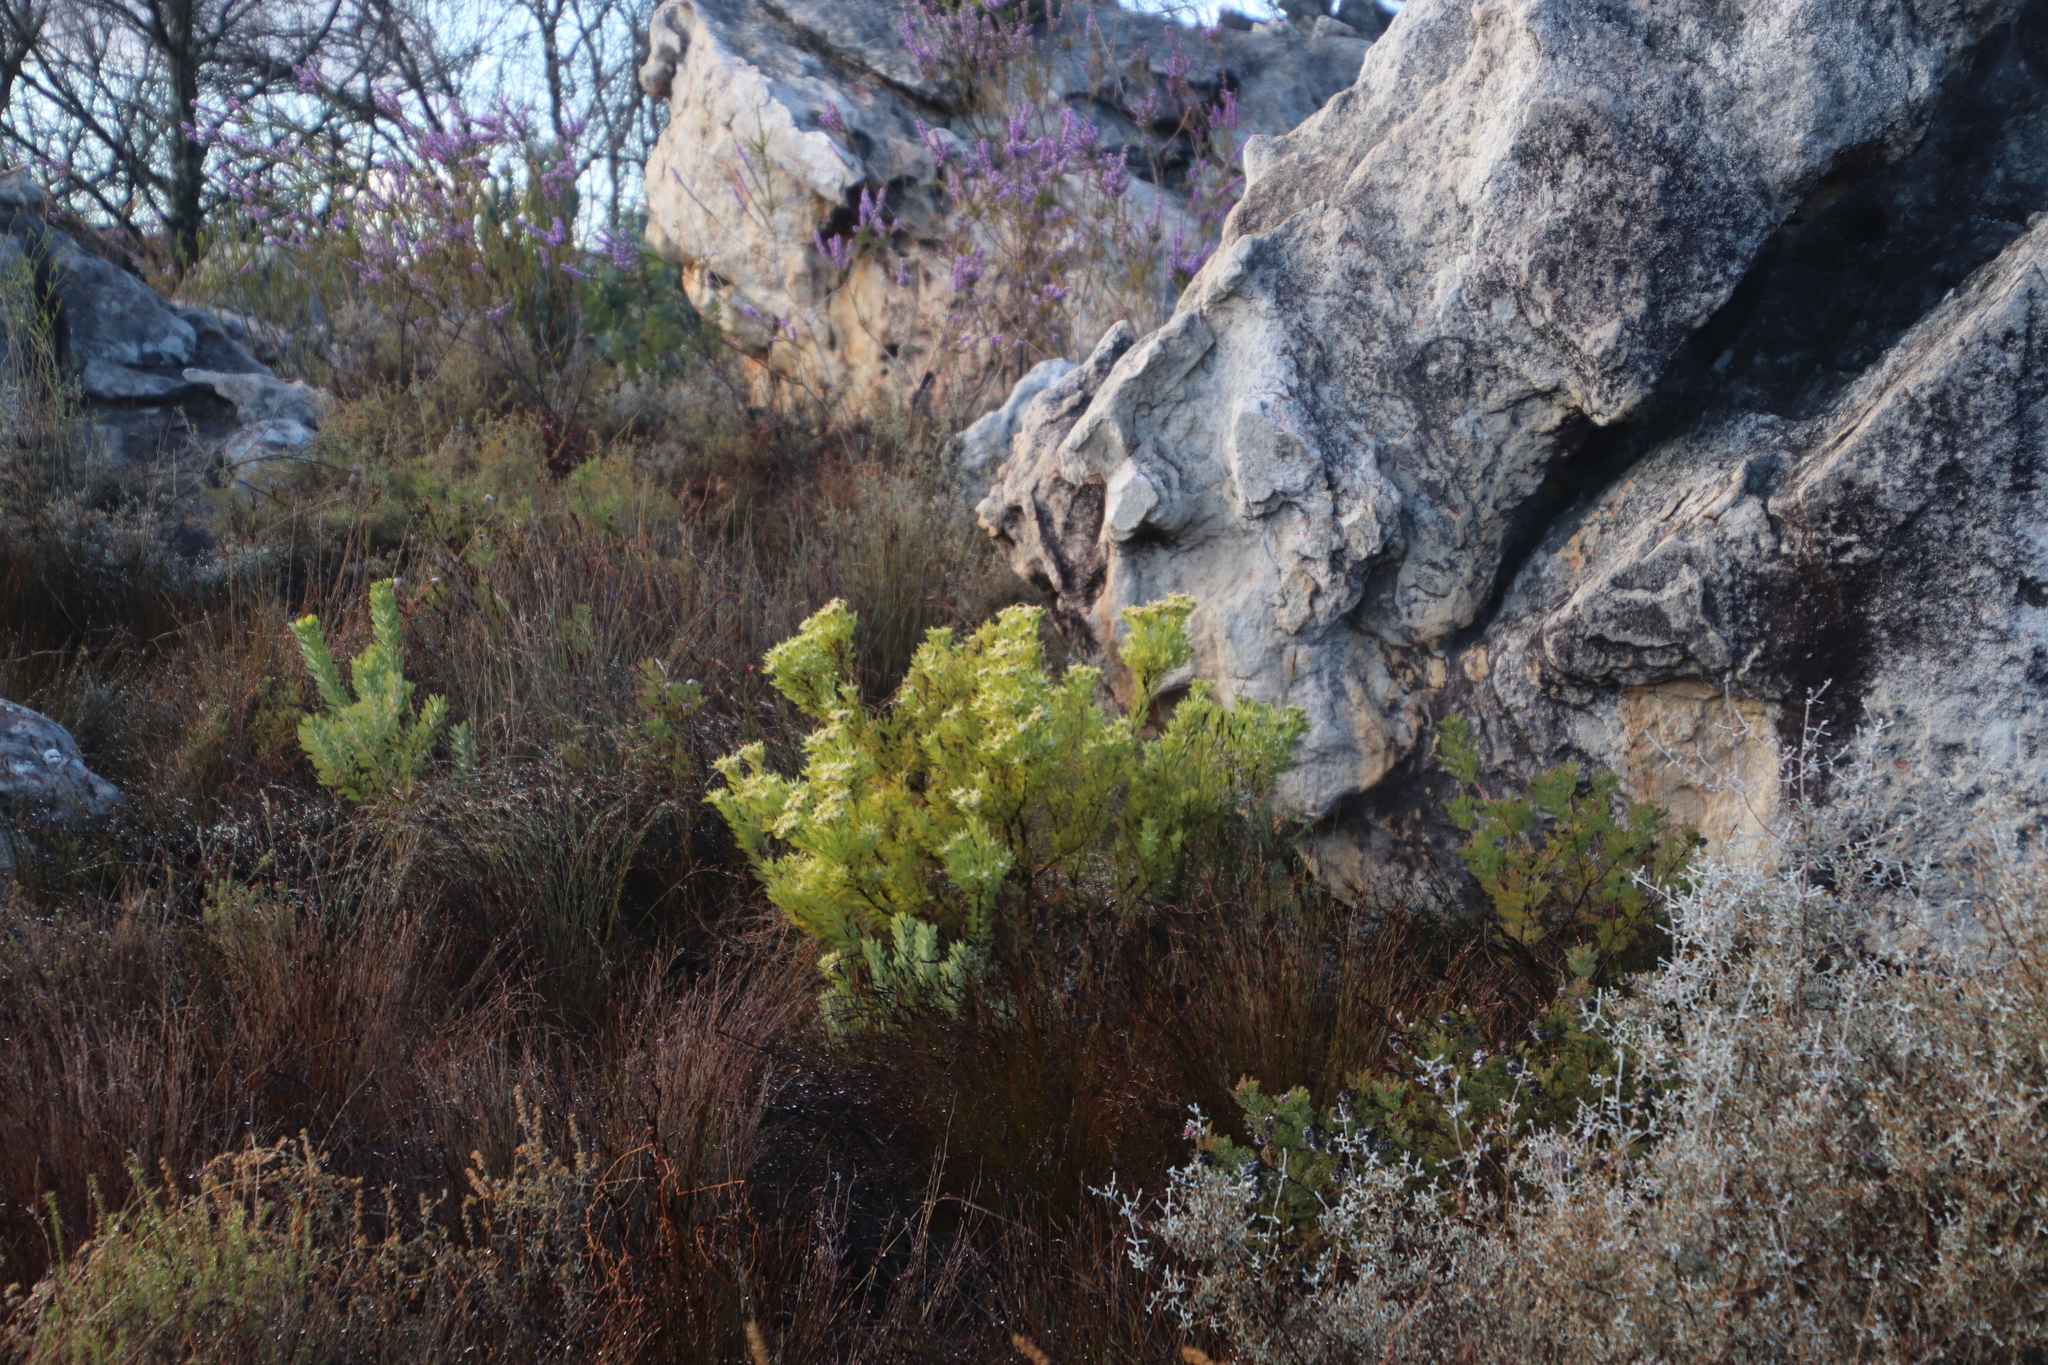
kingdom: Plantae
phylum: Tracheophyta
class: Magnoliopsida
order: Proteales
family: Proteaceae
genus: Leucadendron
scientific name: Leucadendron pubescens
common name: Grey conebush
